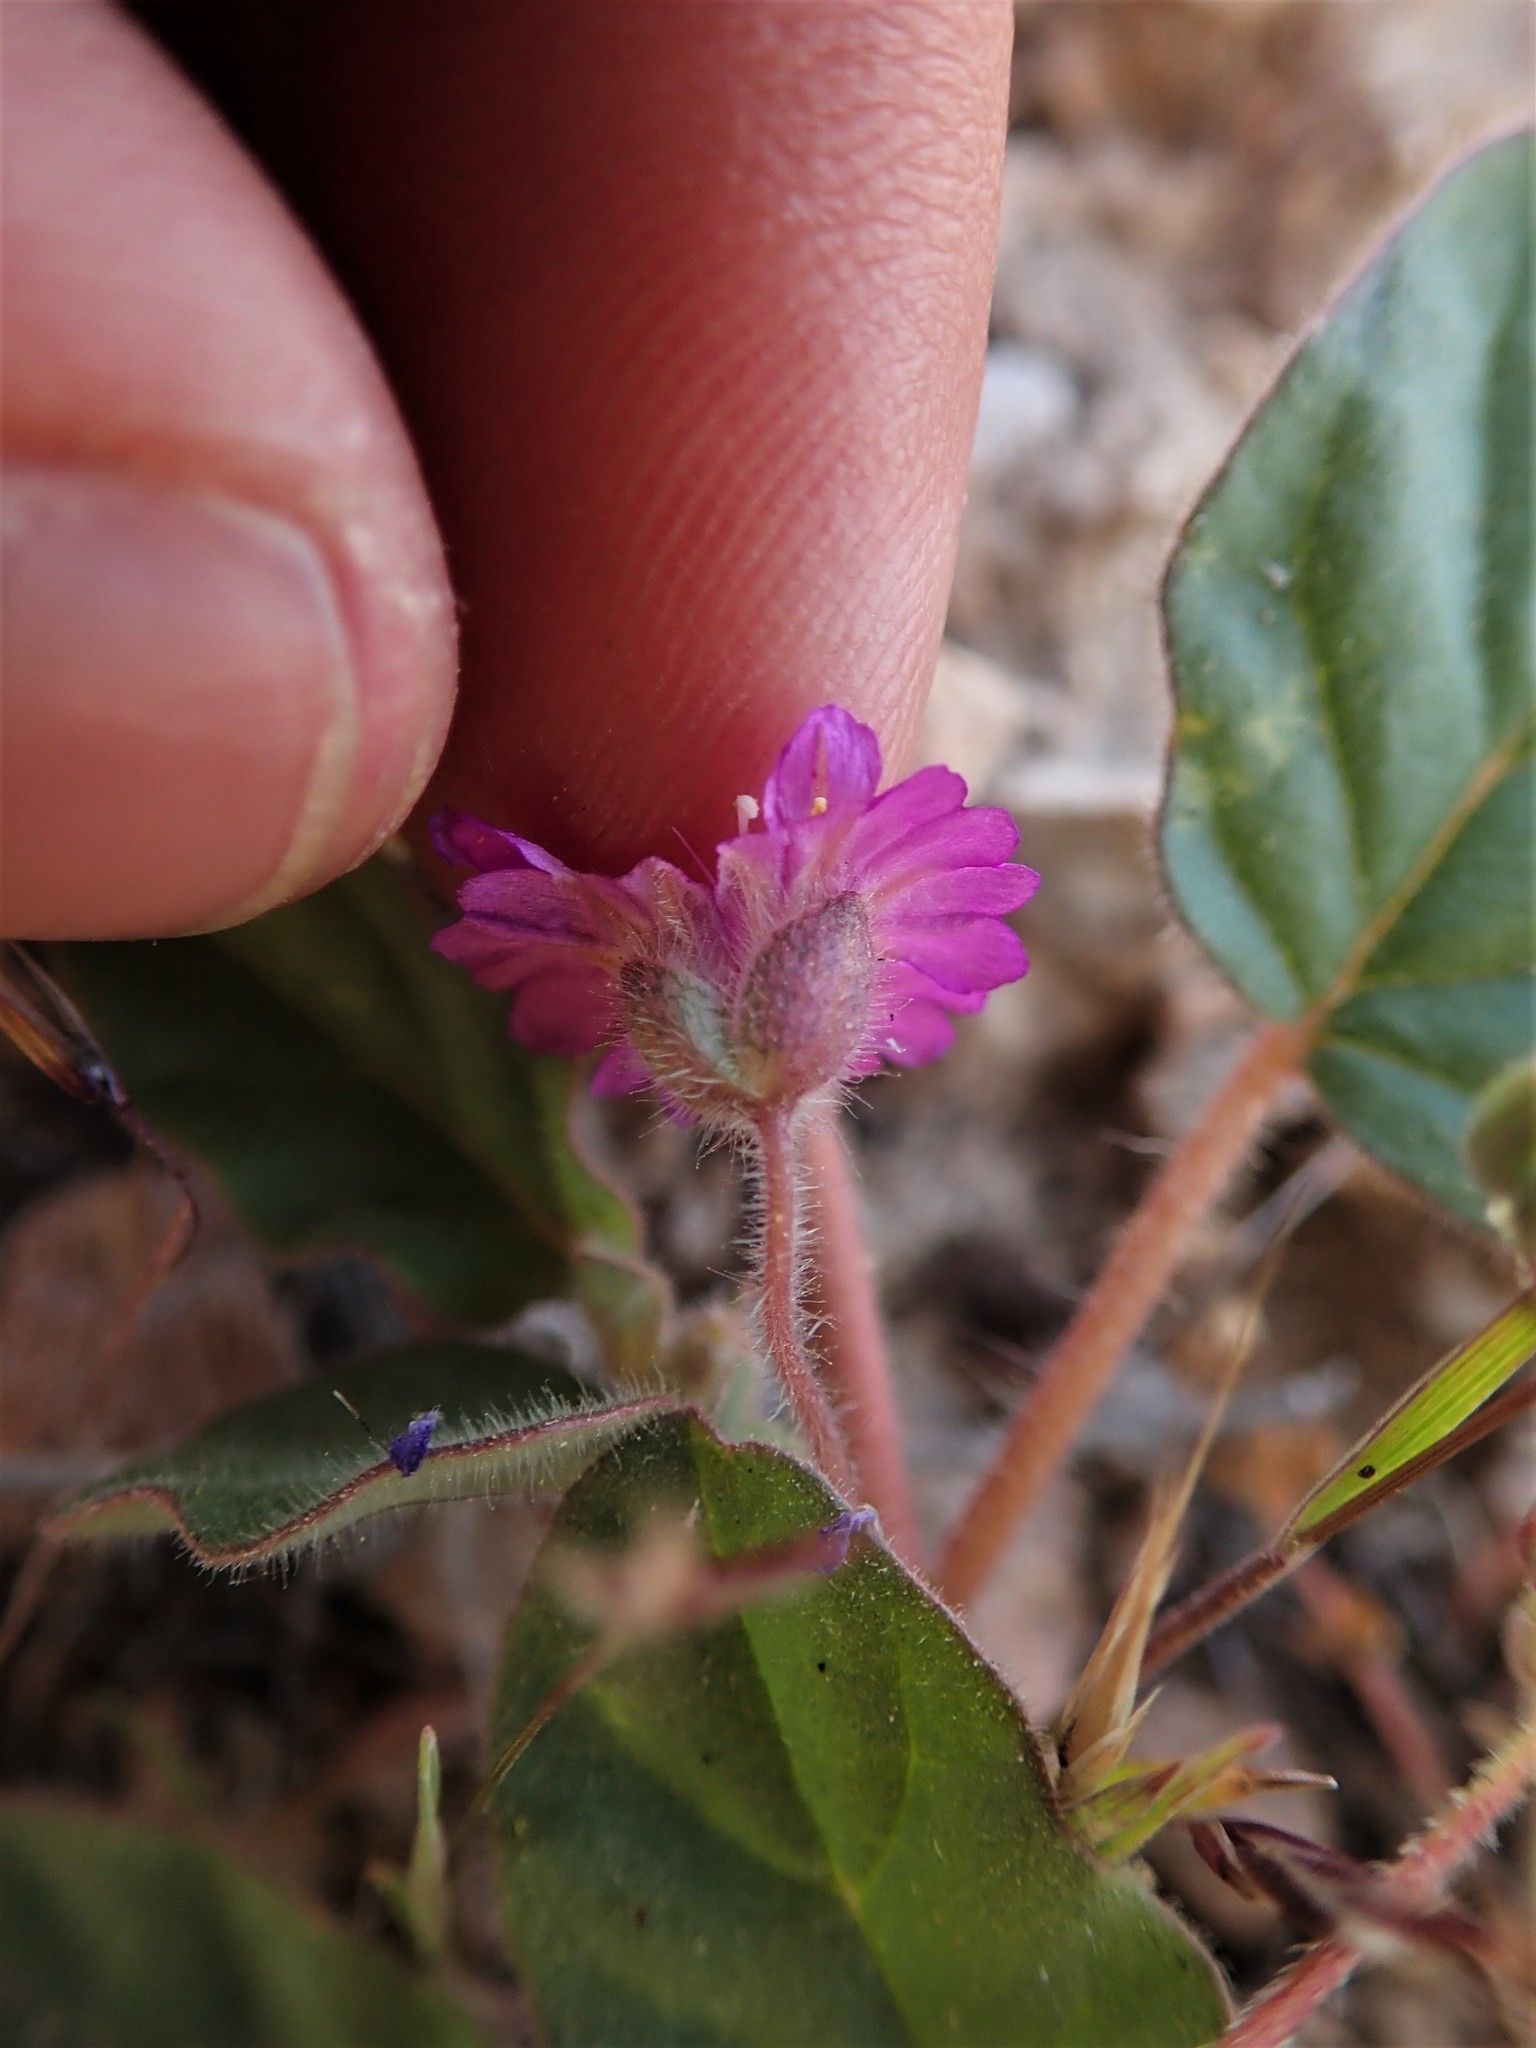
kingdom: Plantae
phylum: Tracheophyta
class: Magnoliopsida
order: Caryophyllales
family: Nyctaginaceae
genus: Allionia
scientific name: Allionia incarnata
